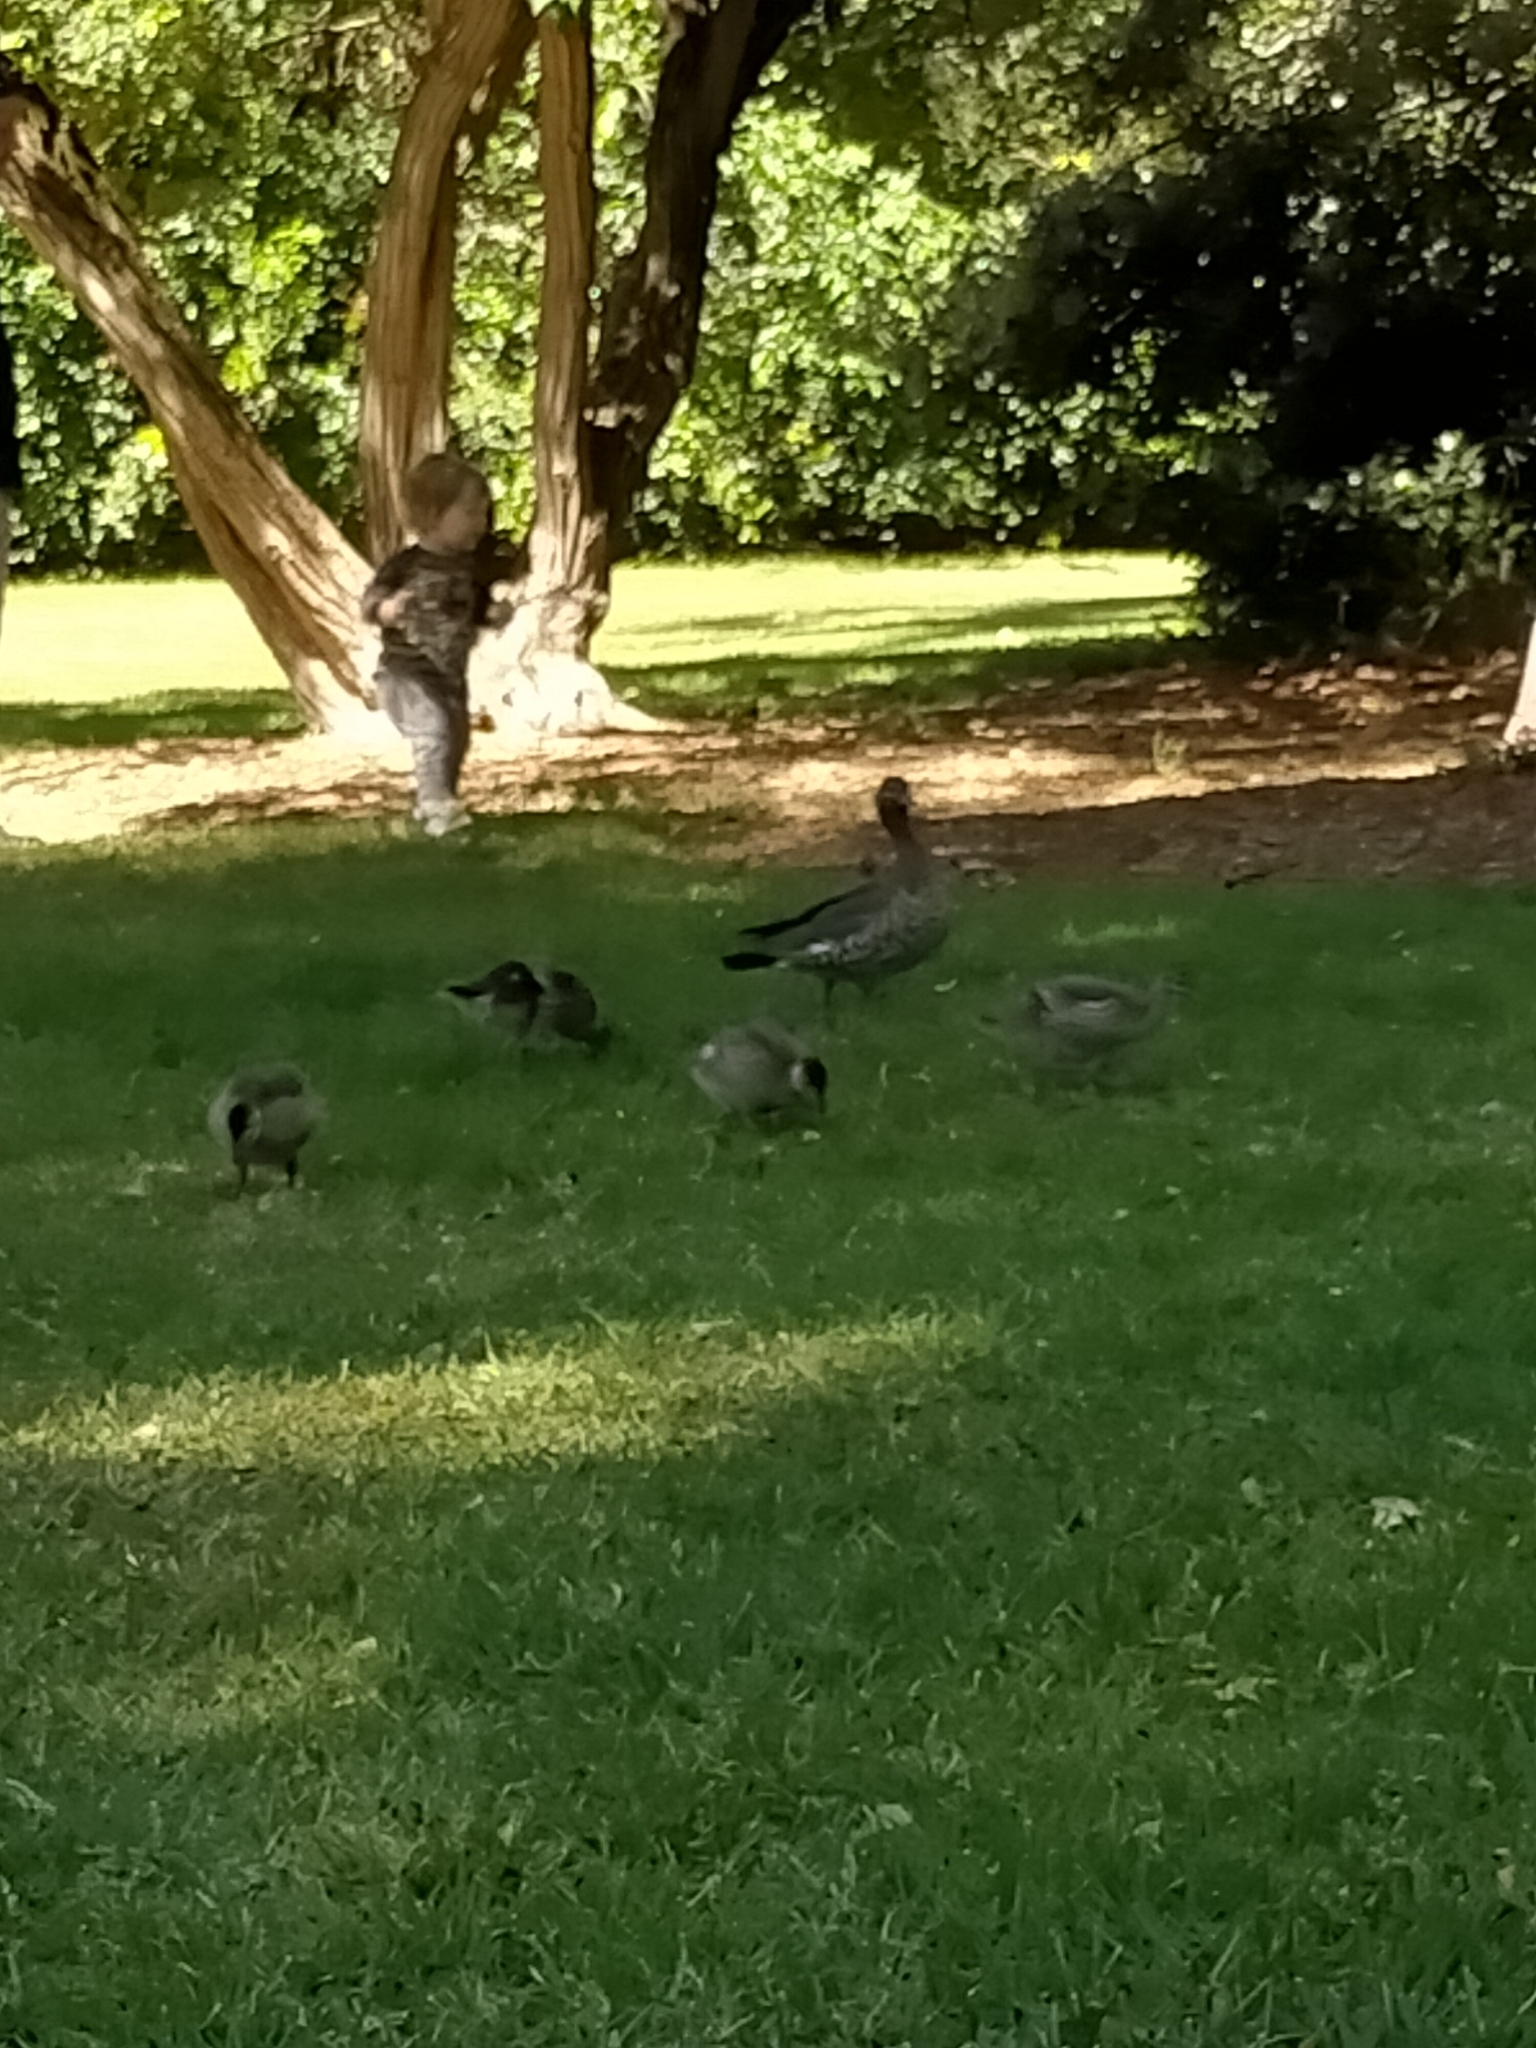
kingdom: Animalia
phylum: Chordata
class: Aves
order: Anseriformes
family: Anatidae
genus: Chenonetta
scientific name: Chenonetta jubata
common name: Maned duck
